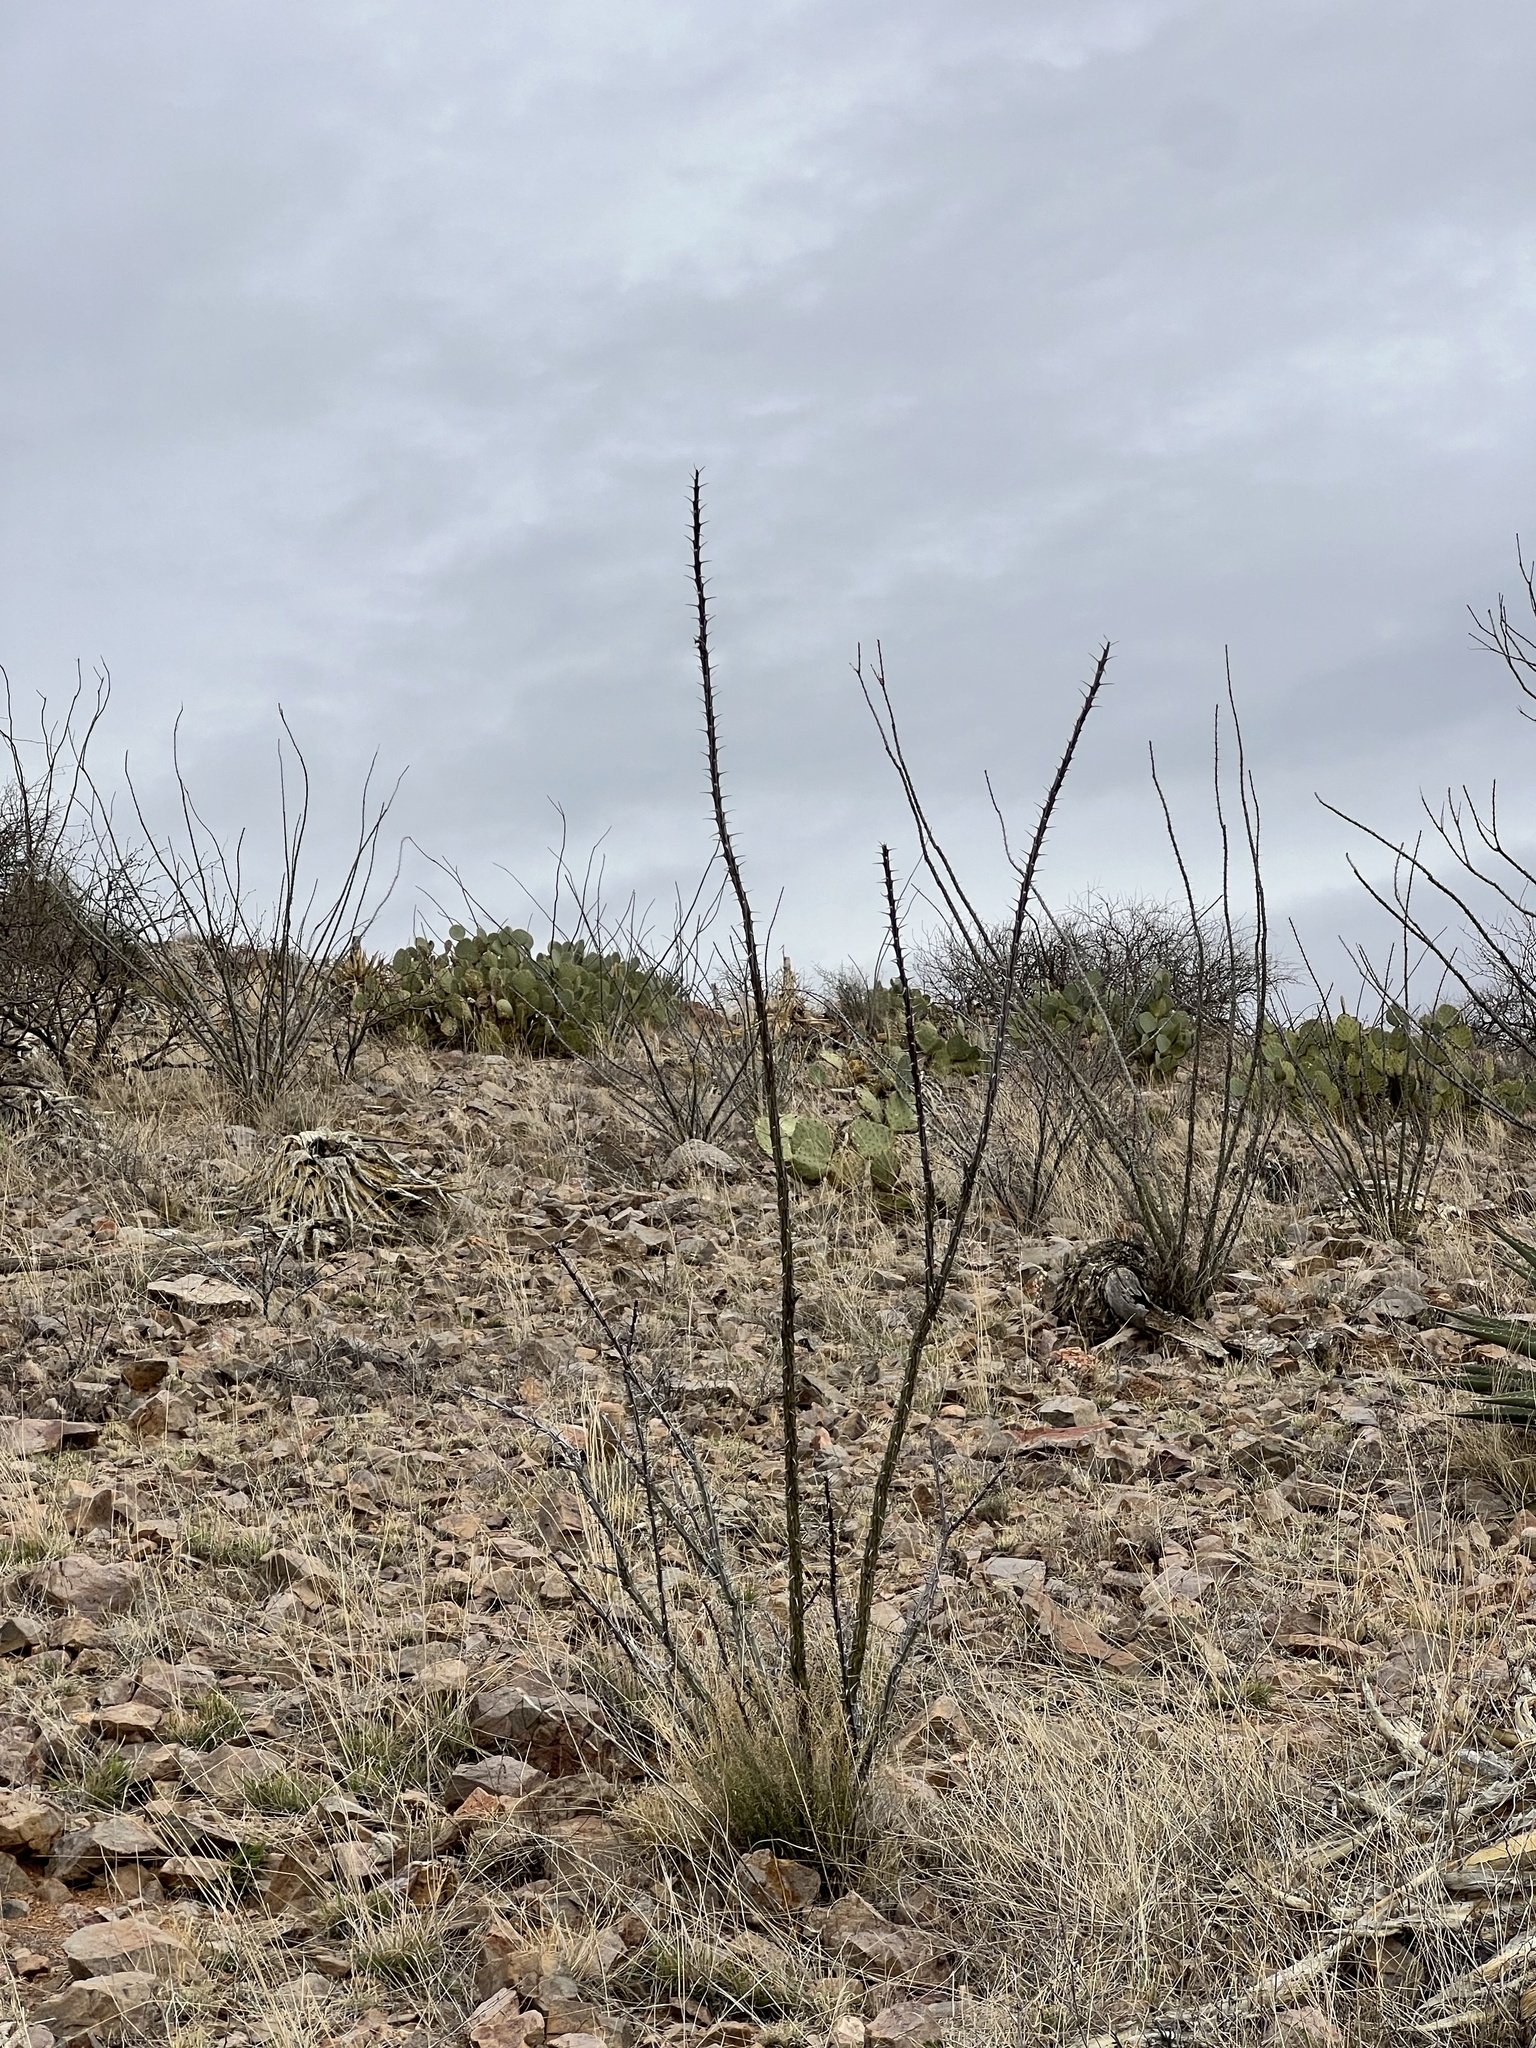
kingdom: Plantae
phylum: Tracheophyta
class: Magnoliopsida
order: Ericales
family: Fouquieriaceae
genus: Fouquieria
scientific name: Fouquieria splendens
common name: Vine-cactus
